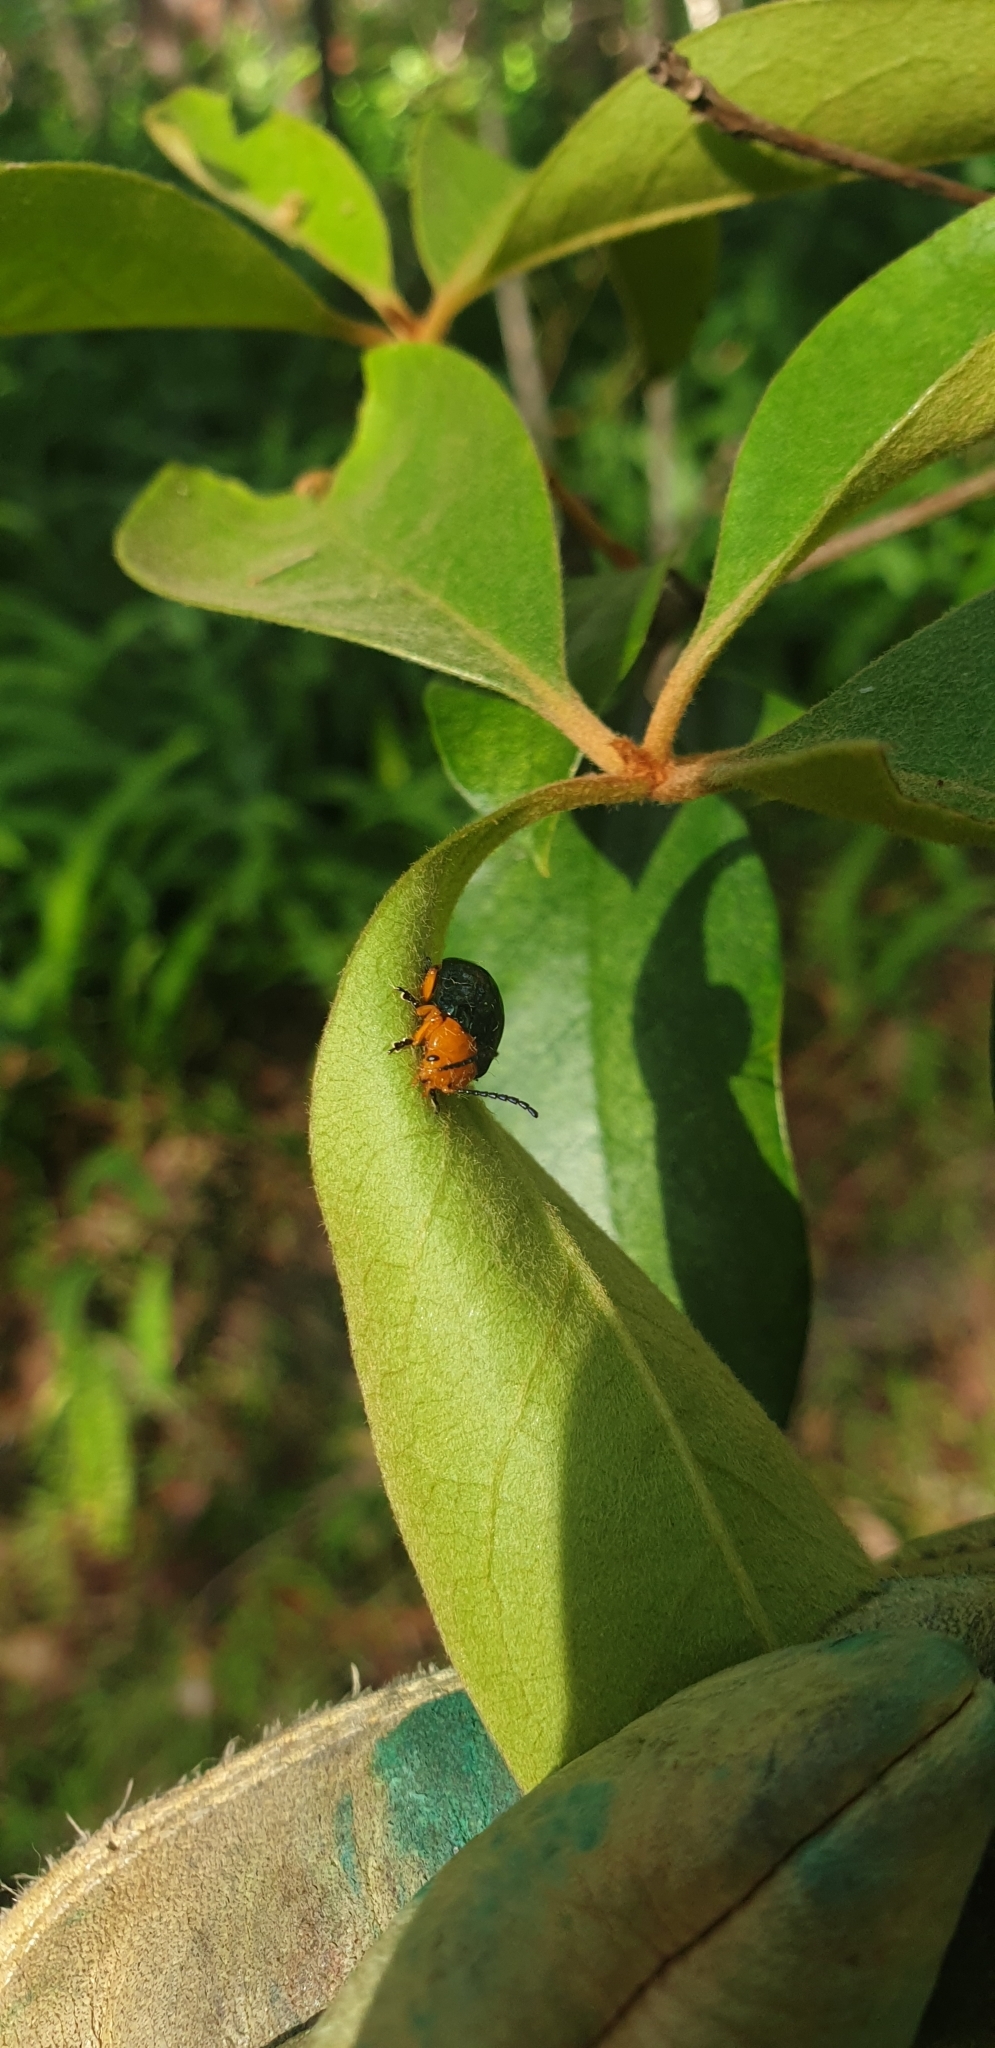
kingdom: Animalia
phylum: Arthropoda
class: Insecta
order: Coleoptera
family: Chrysomelidae
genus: Lamprolina
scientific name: Lamprolina
